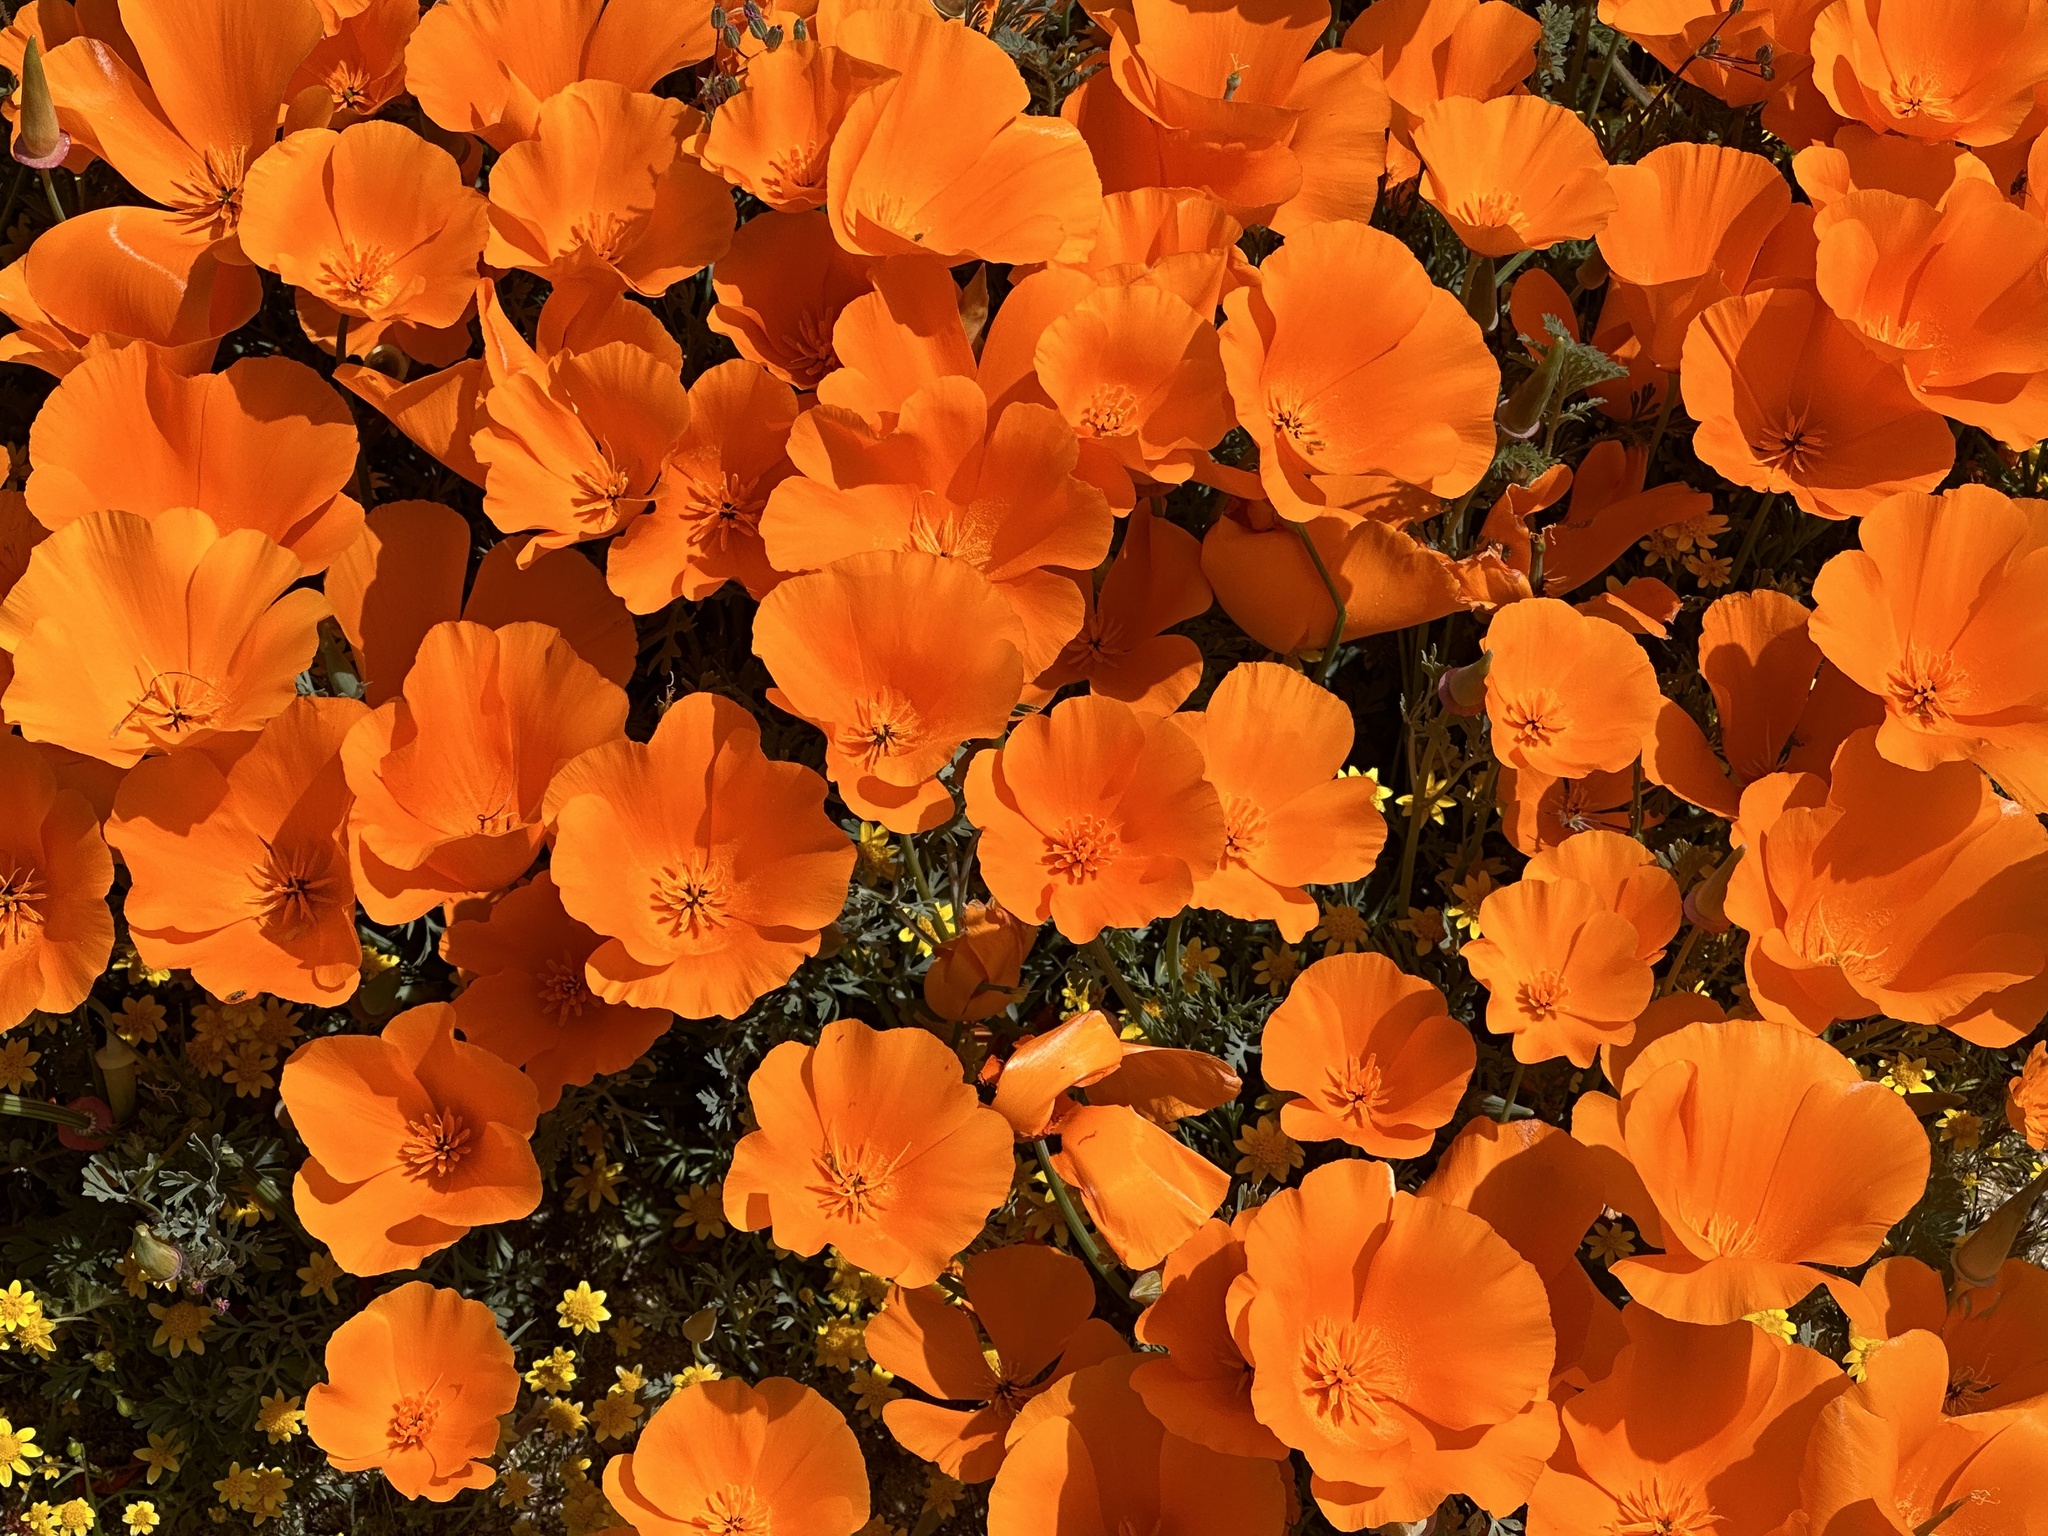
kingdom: Plantae
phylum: Tracheophyta
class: Magnoliopsida
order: Ranunculales
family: Papaveraceae
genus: Eschscholzia
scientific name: Eschscholzia californica
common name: California poppy
